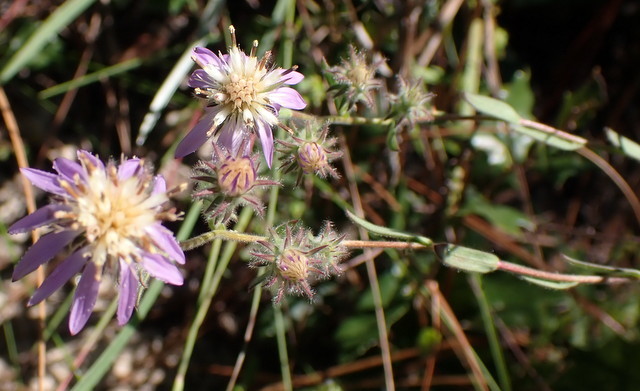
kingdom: Plantae
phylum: Tracheophyta
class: Magnoliopsida
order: Asterales
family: Asteraceae
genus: Symphyotrichum
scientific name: Symphyotrichum plumosum
